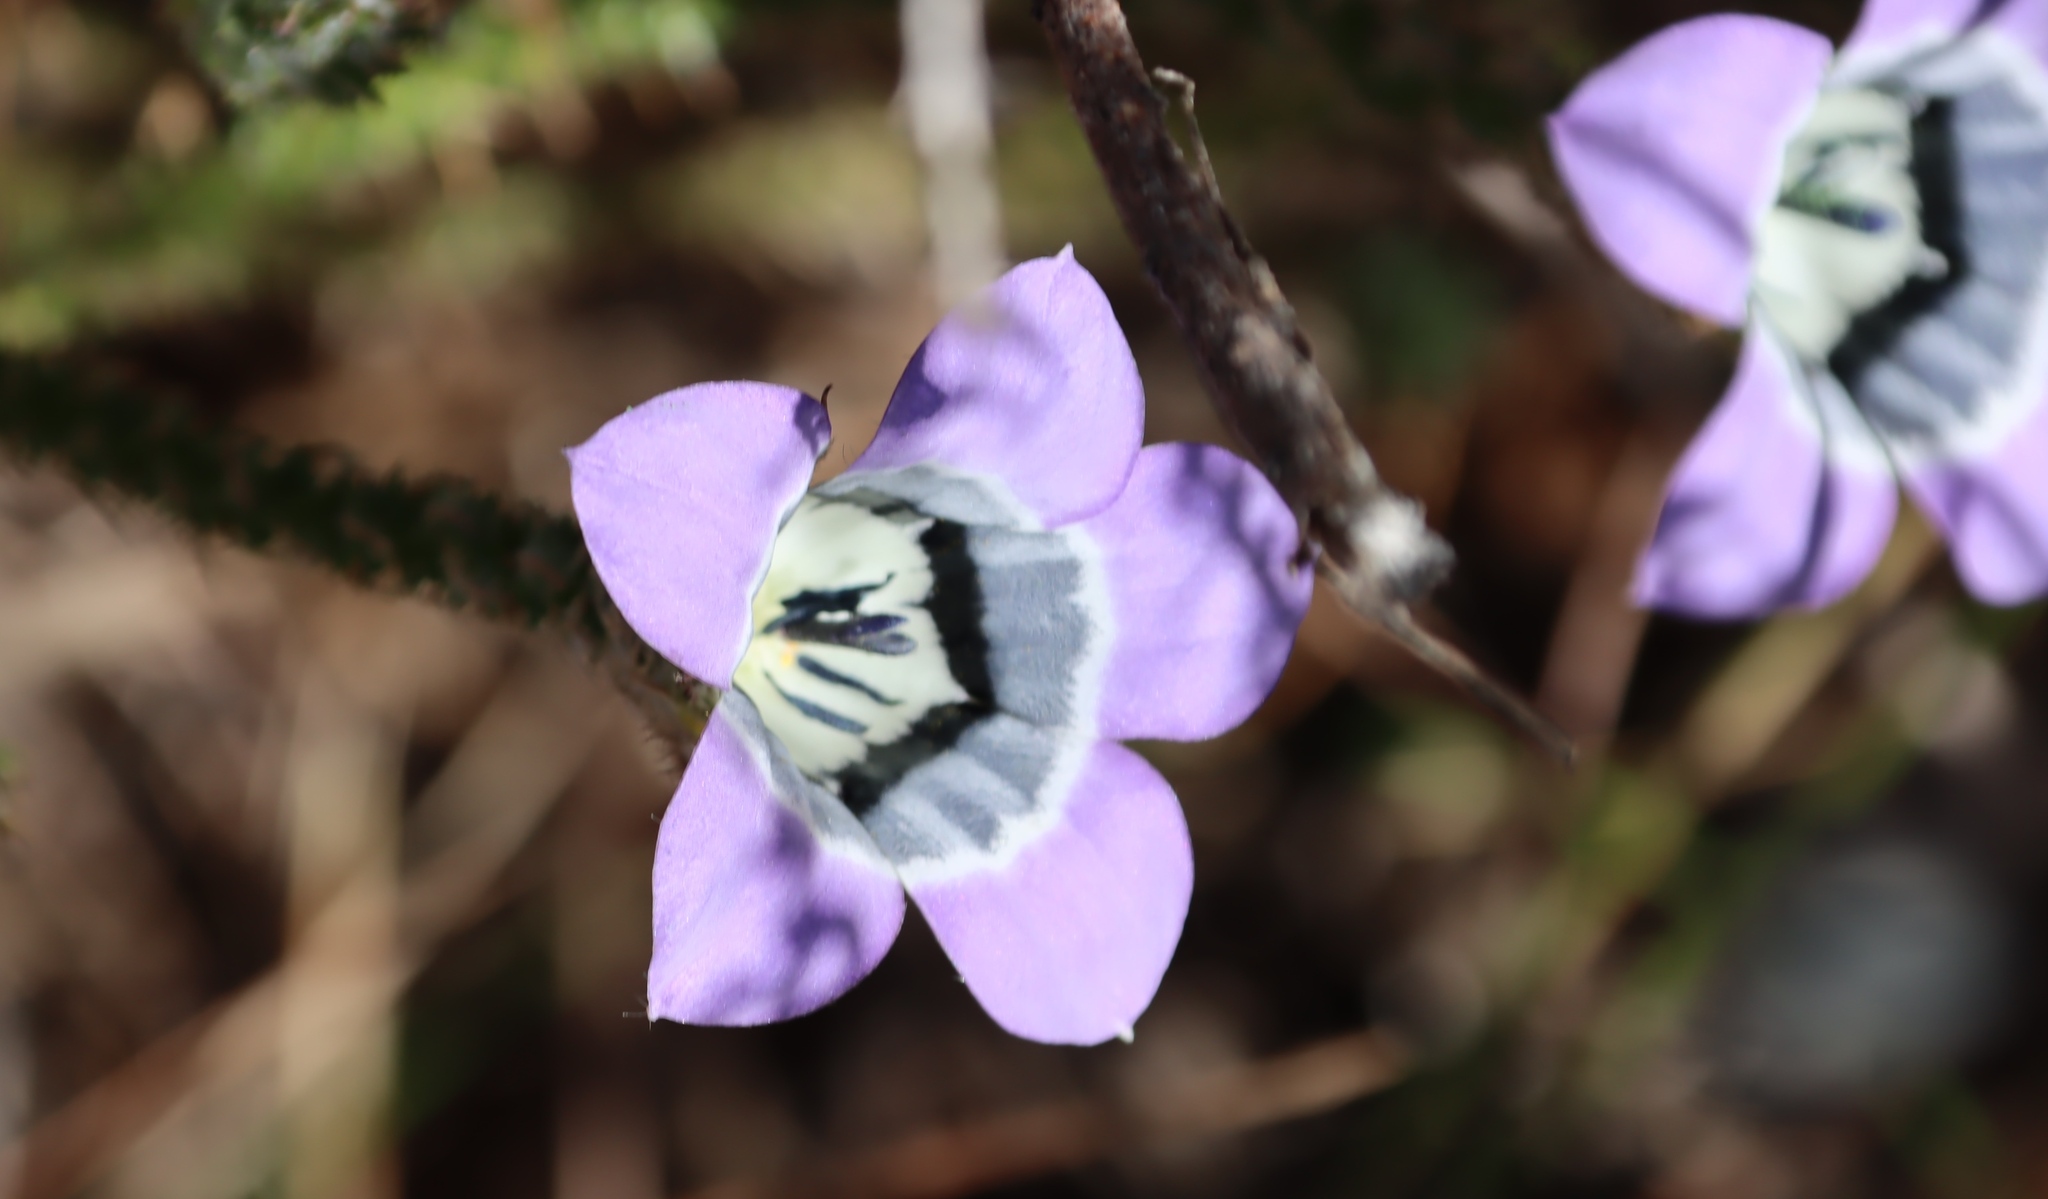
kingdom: Plantae
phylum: Tracheophyta
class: Magnoliopsida
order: Asterales
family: Campanulaceae
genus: Roella
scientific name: Roella ciliata
